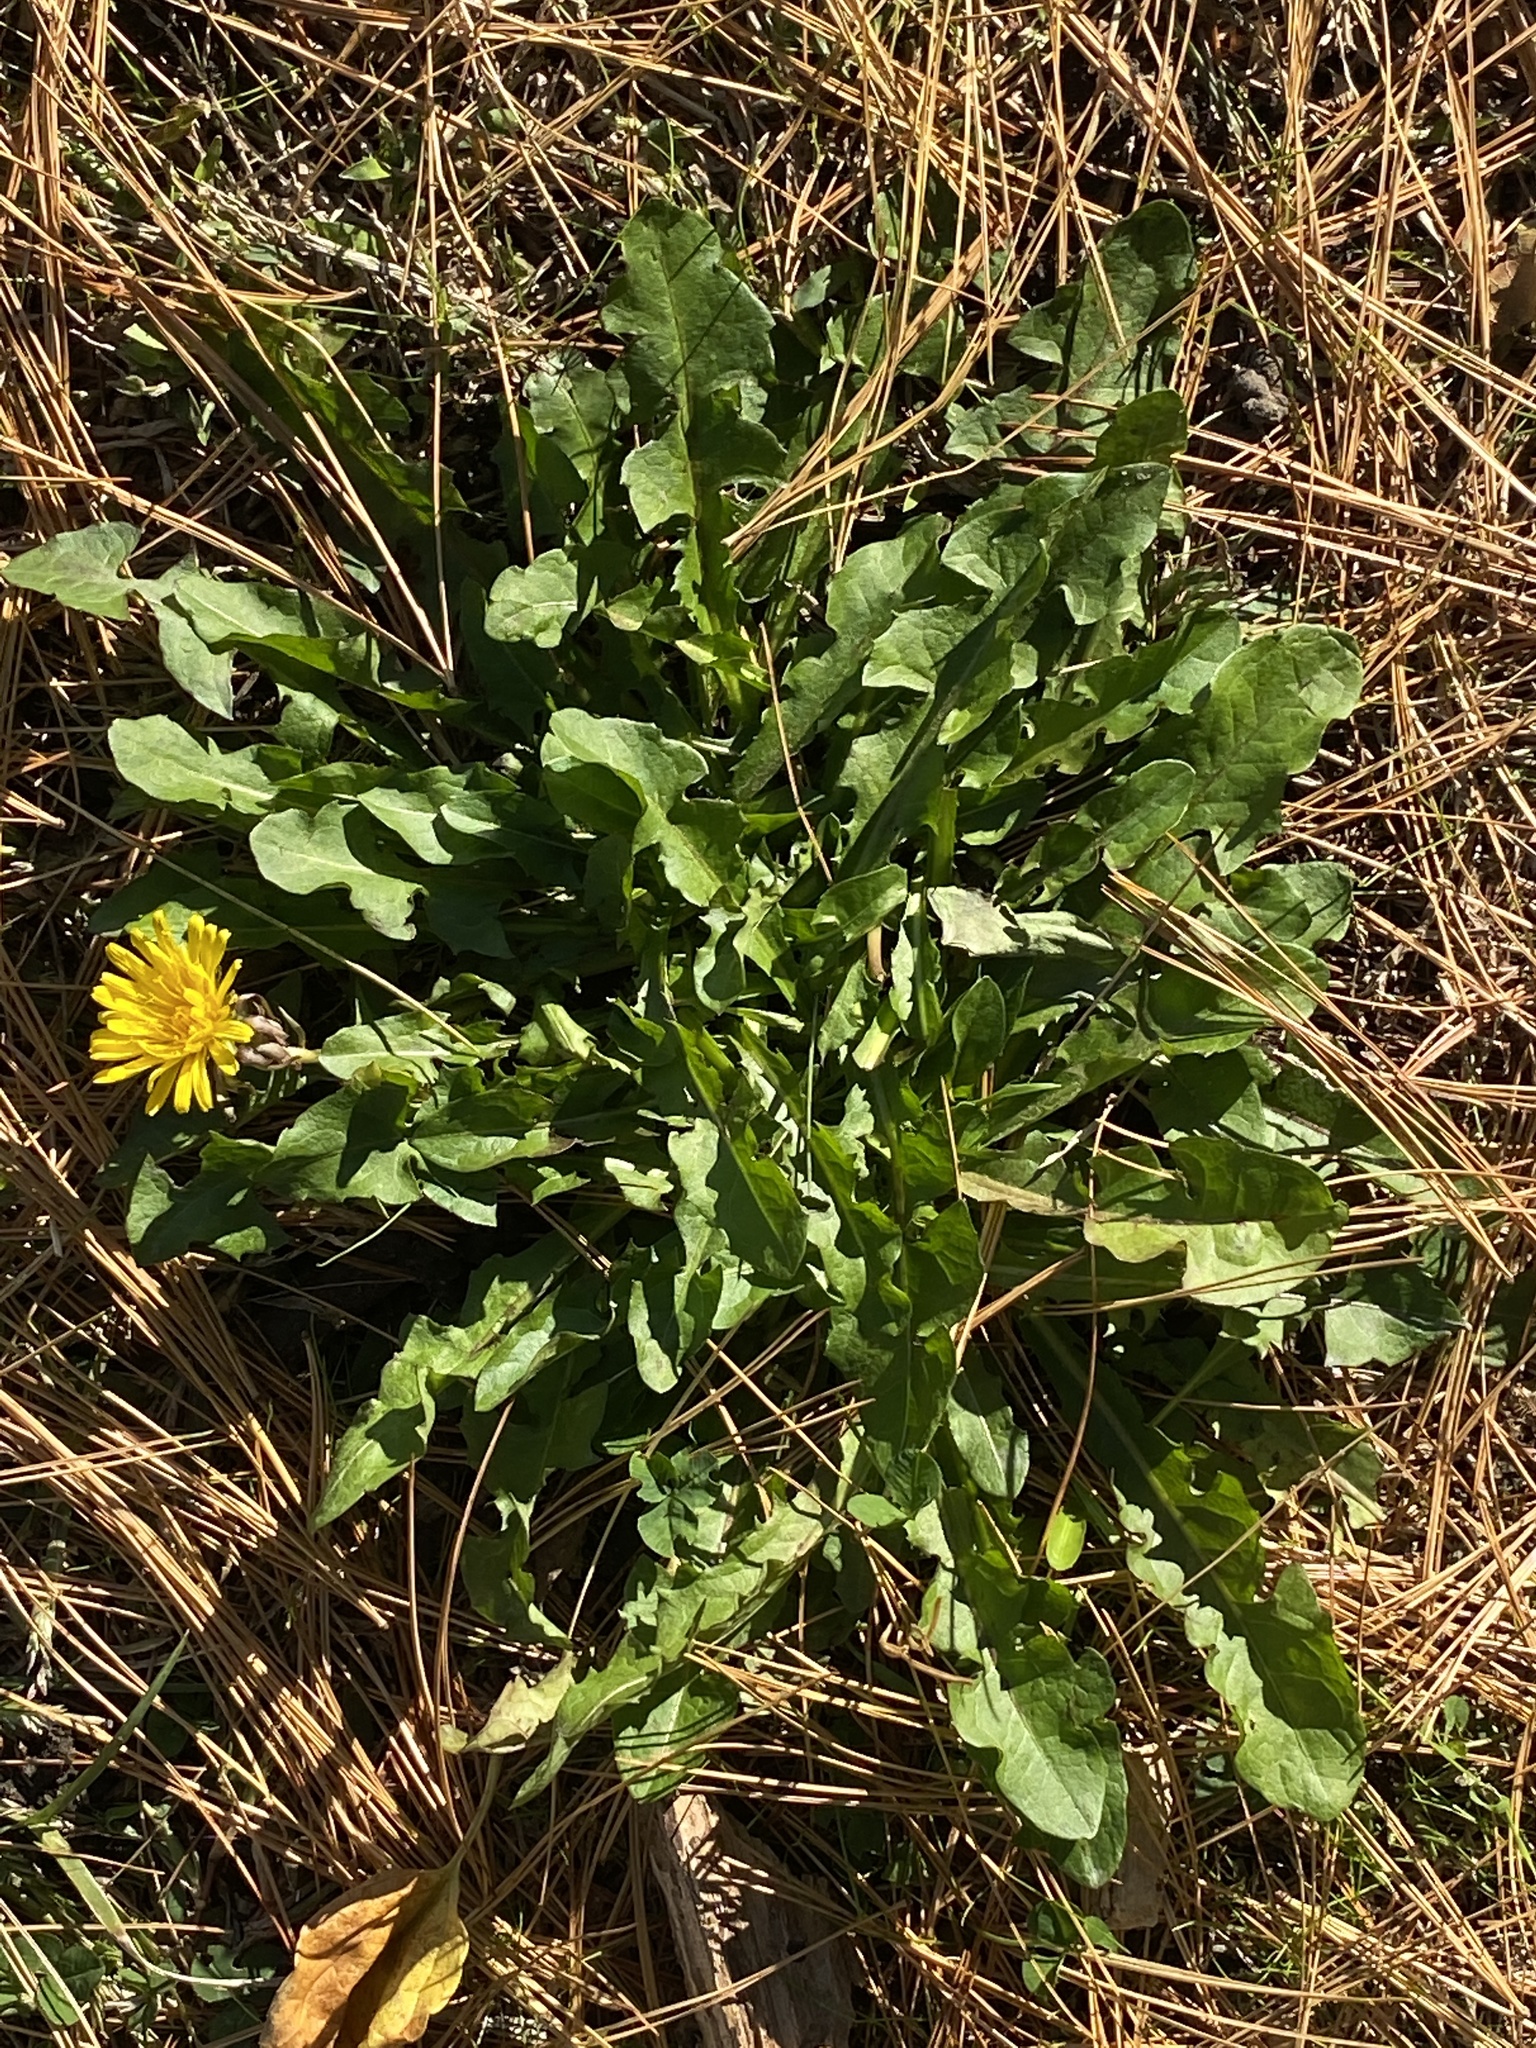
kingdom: Plantae
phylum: Tracheophyta
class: Magnoliopsida
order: Asterales
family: Asteraceae
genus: Taraxacum
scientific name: Taraxacum officinale
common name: Common dandelion
